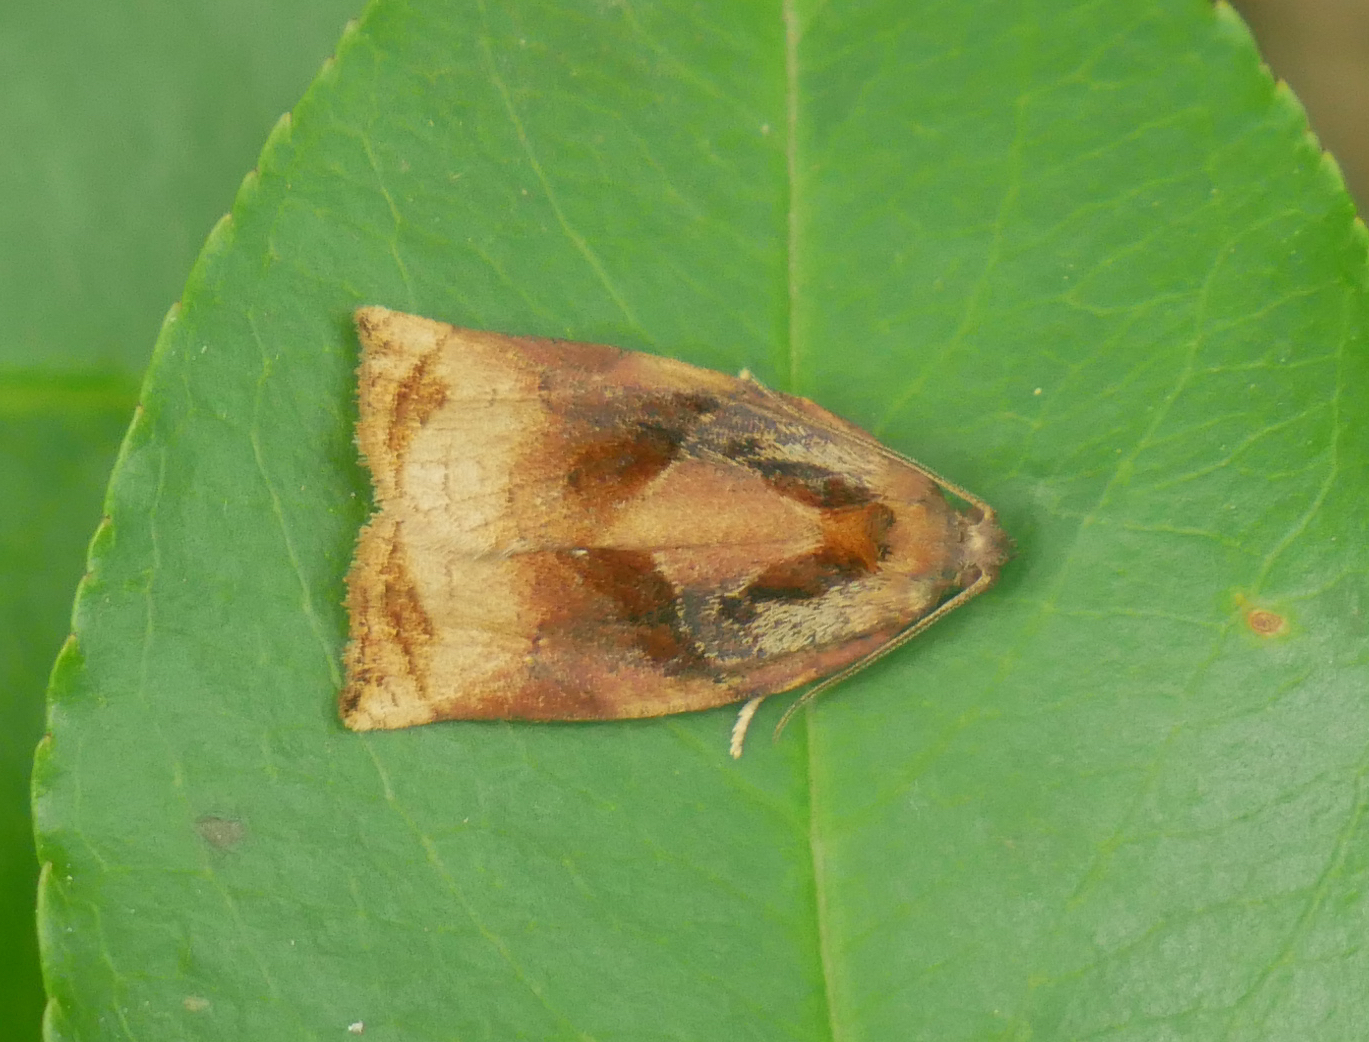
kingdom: Animalia
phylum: Arthropoda
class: Insecta
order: Lepidoptera
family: Tortricidae
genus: Archips
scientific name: Archips podana
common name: Large fruit-tree tortrix
